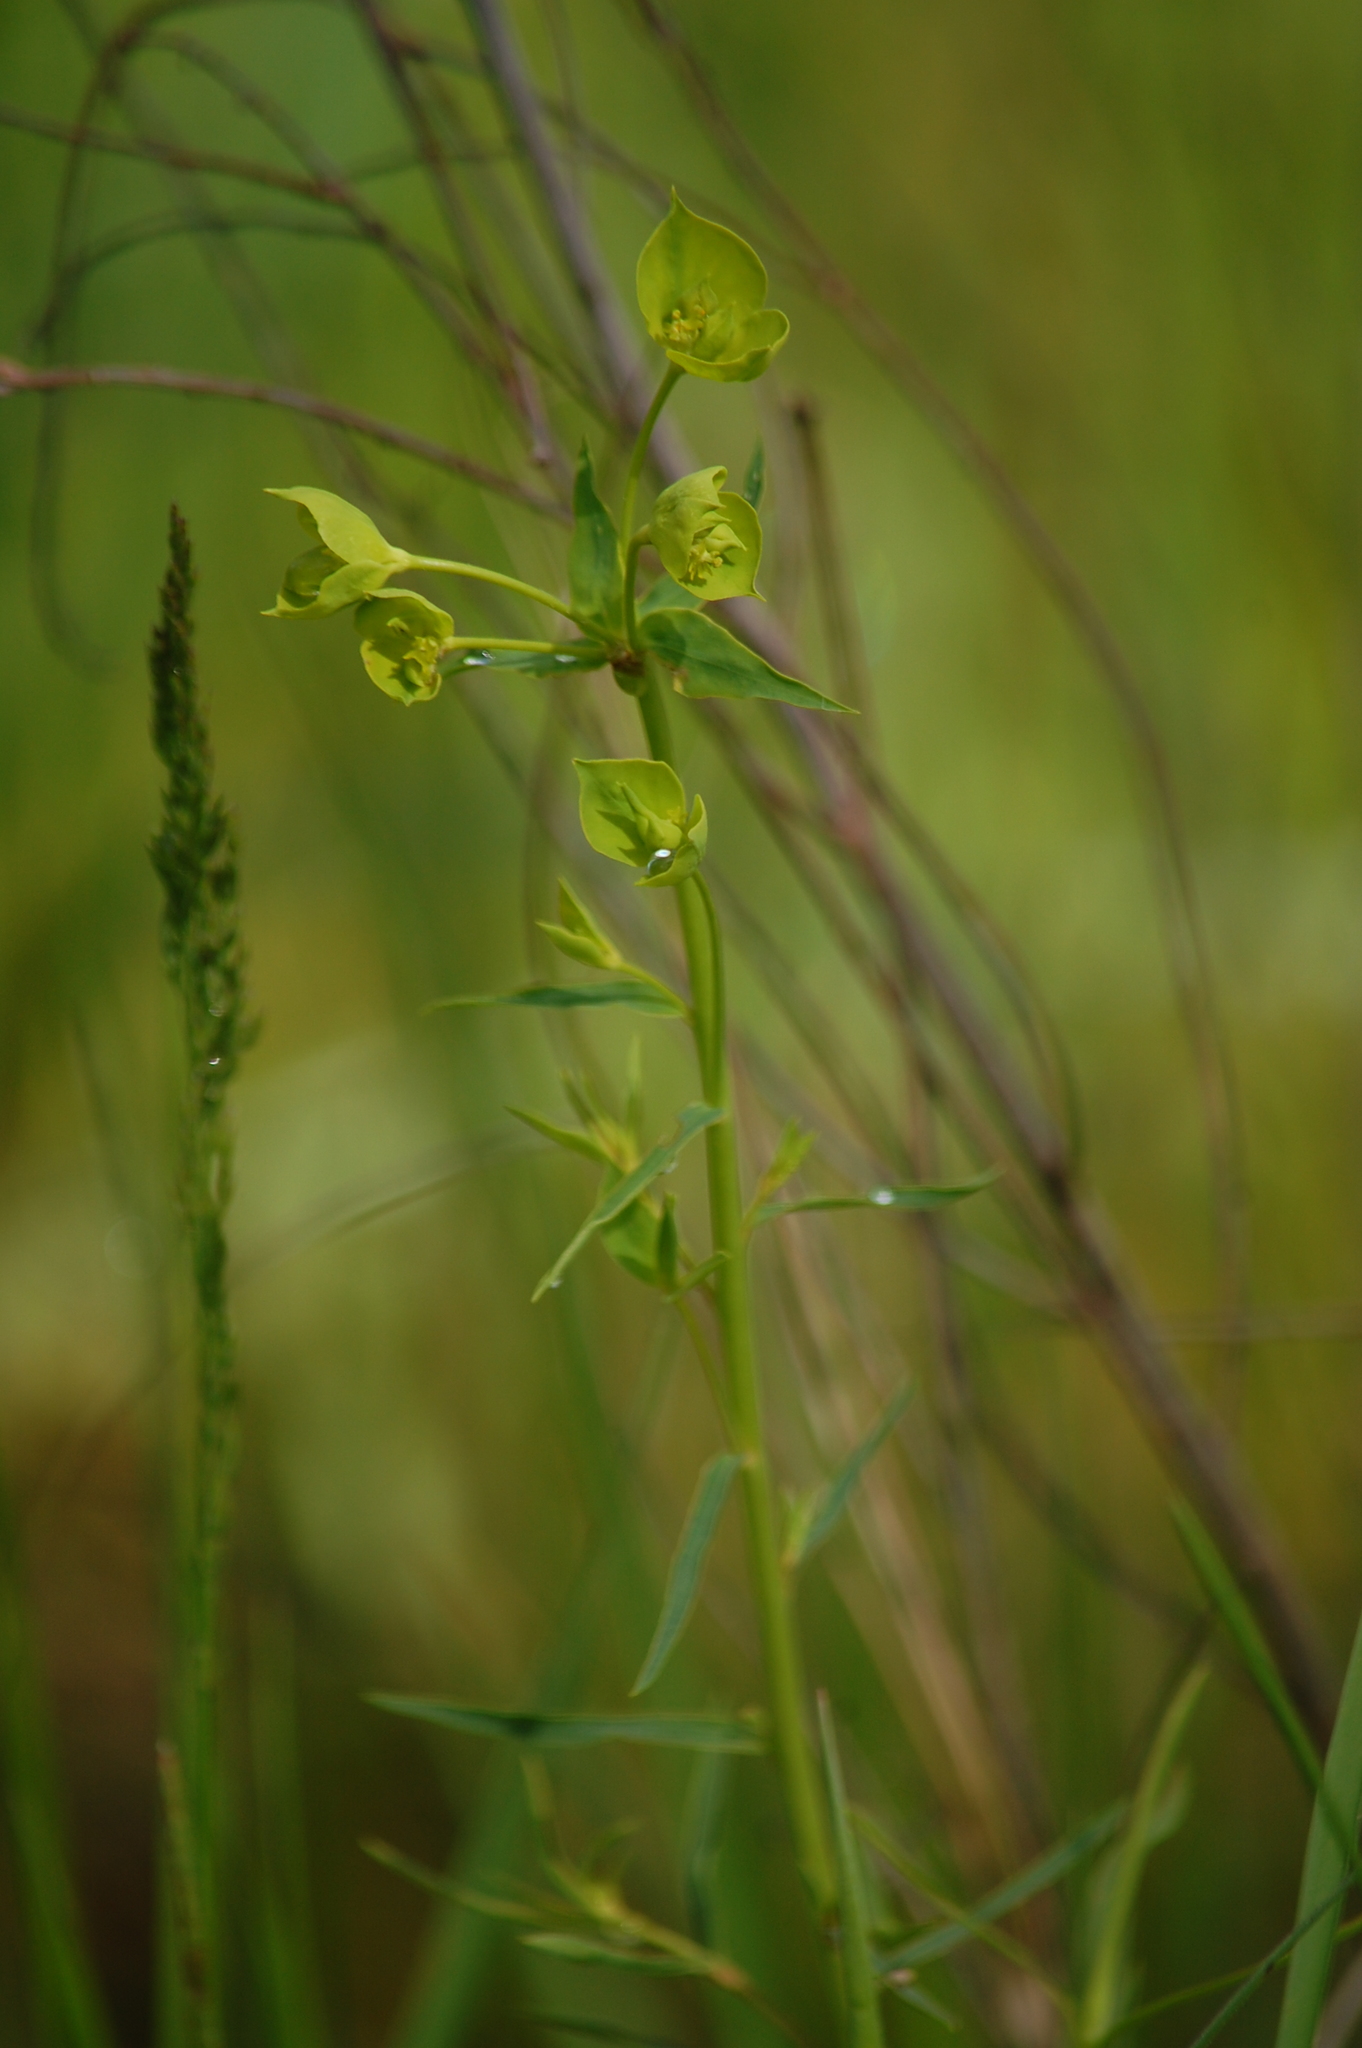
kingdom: Plantae
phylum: Tracheophyta
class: Magnoliopsida
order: Malpighiales
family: Euphorbiaceae
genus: Euphorbia
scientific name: Euphorbia virgata
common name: Leafy spurge
